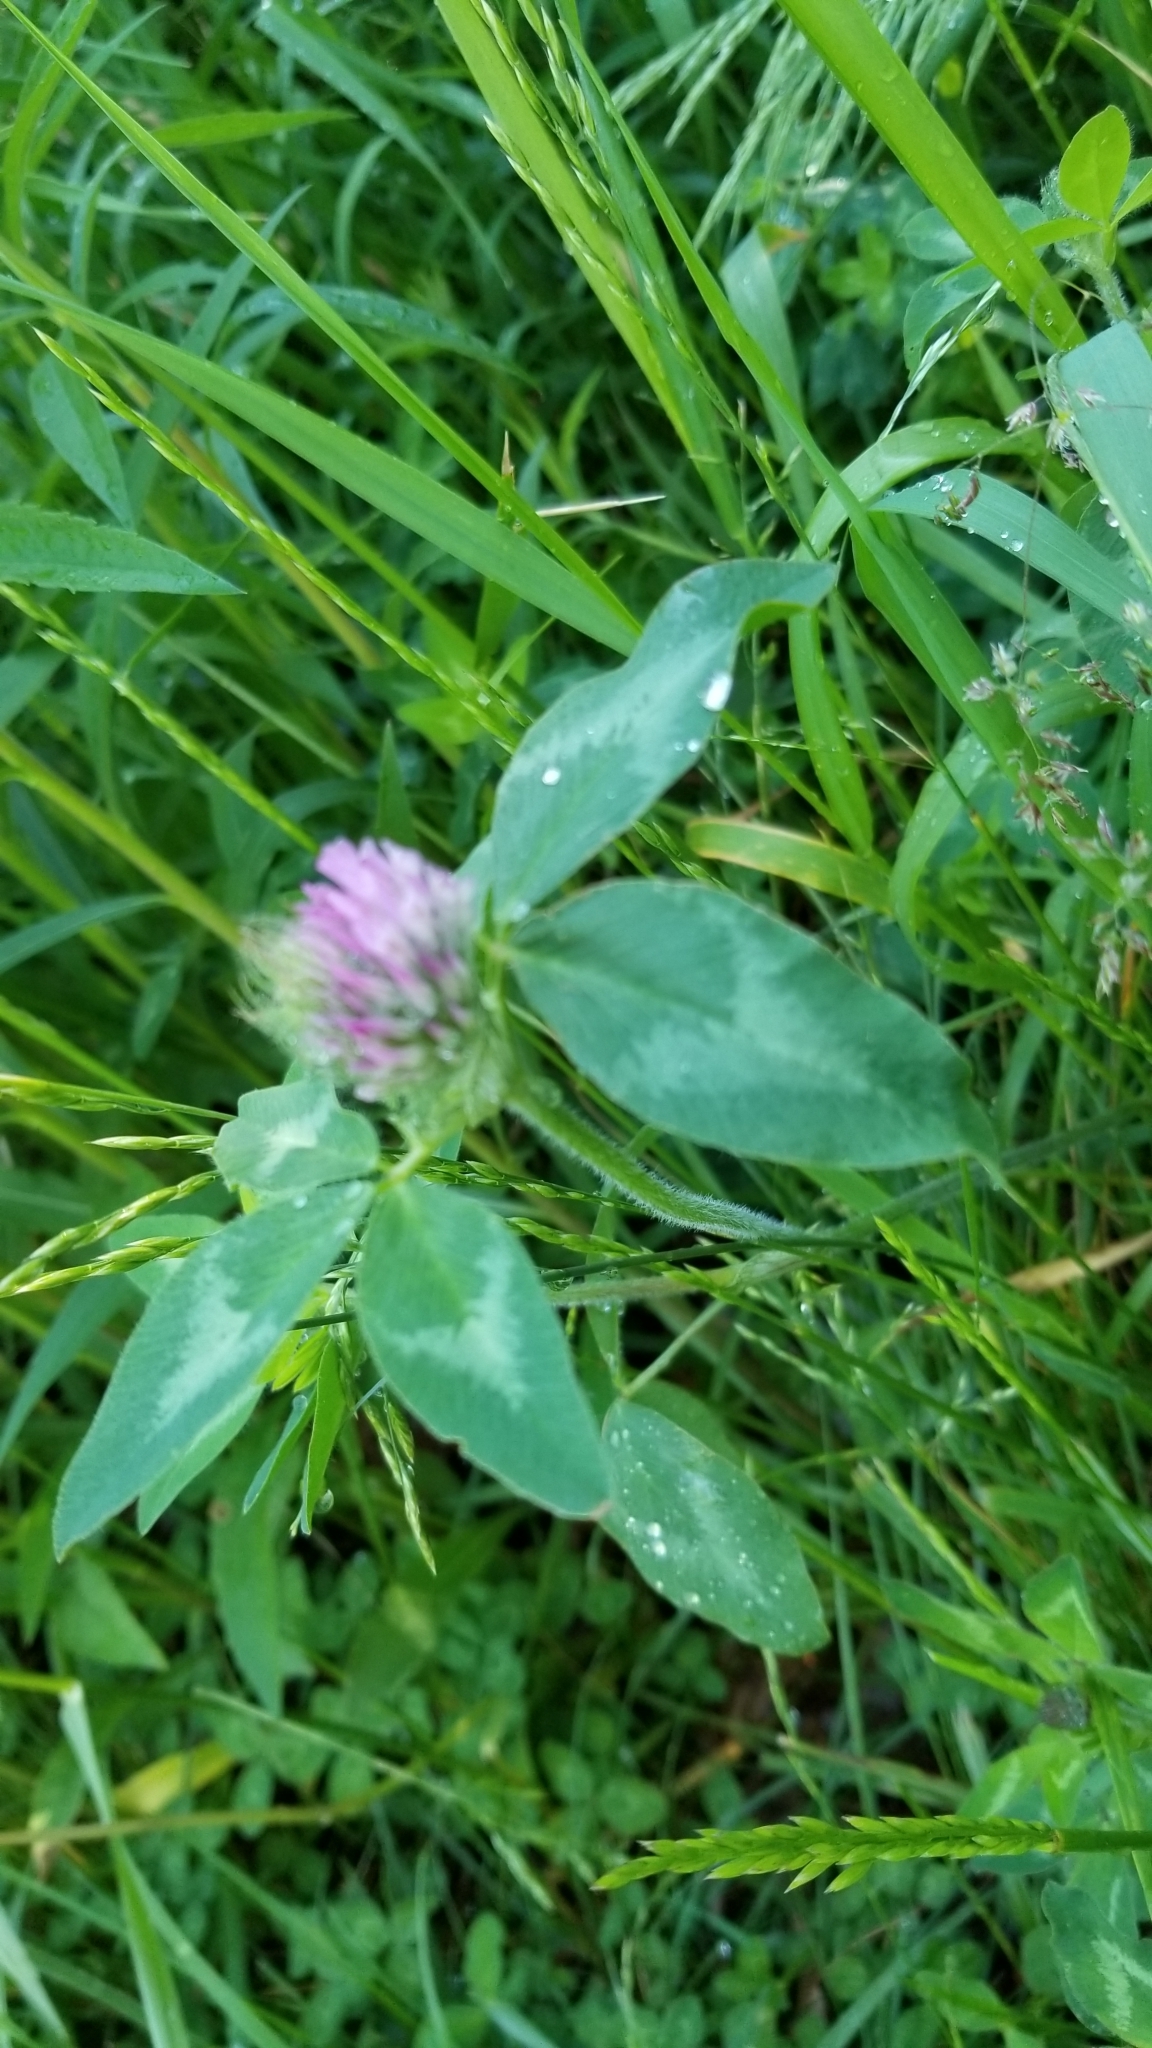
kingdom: Plantae
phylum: Tracheophyta
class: Magnoliopsida
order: Fabales
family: Fabaceae
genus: Trifolium
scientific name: Trifolium pratense
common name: Red clover
